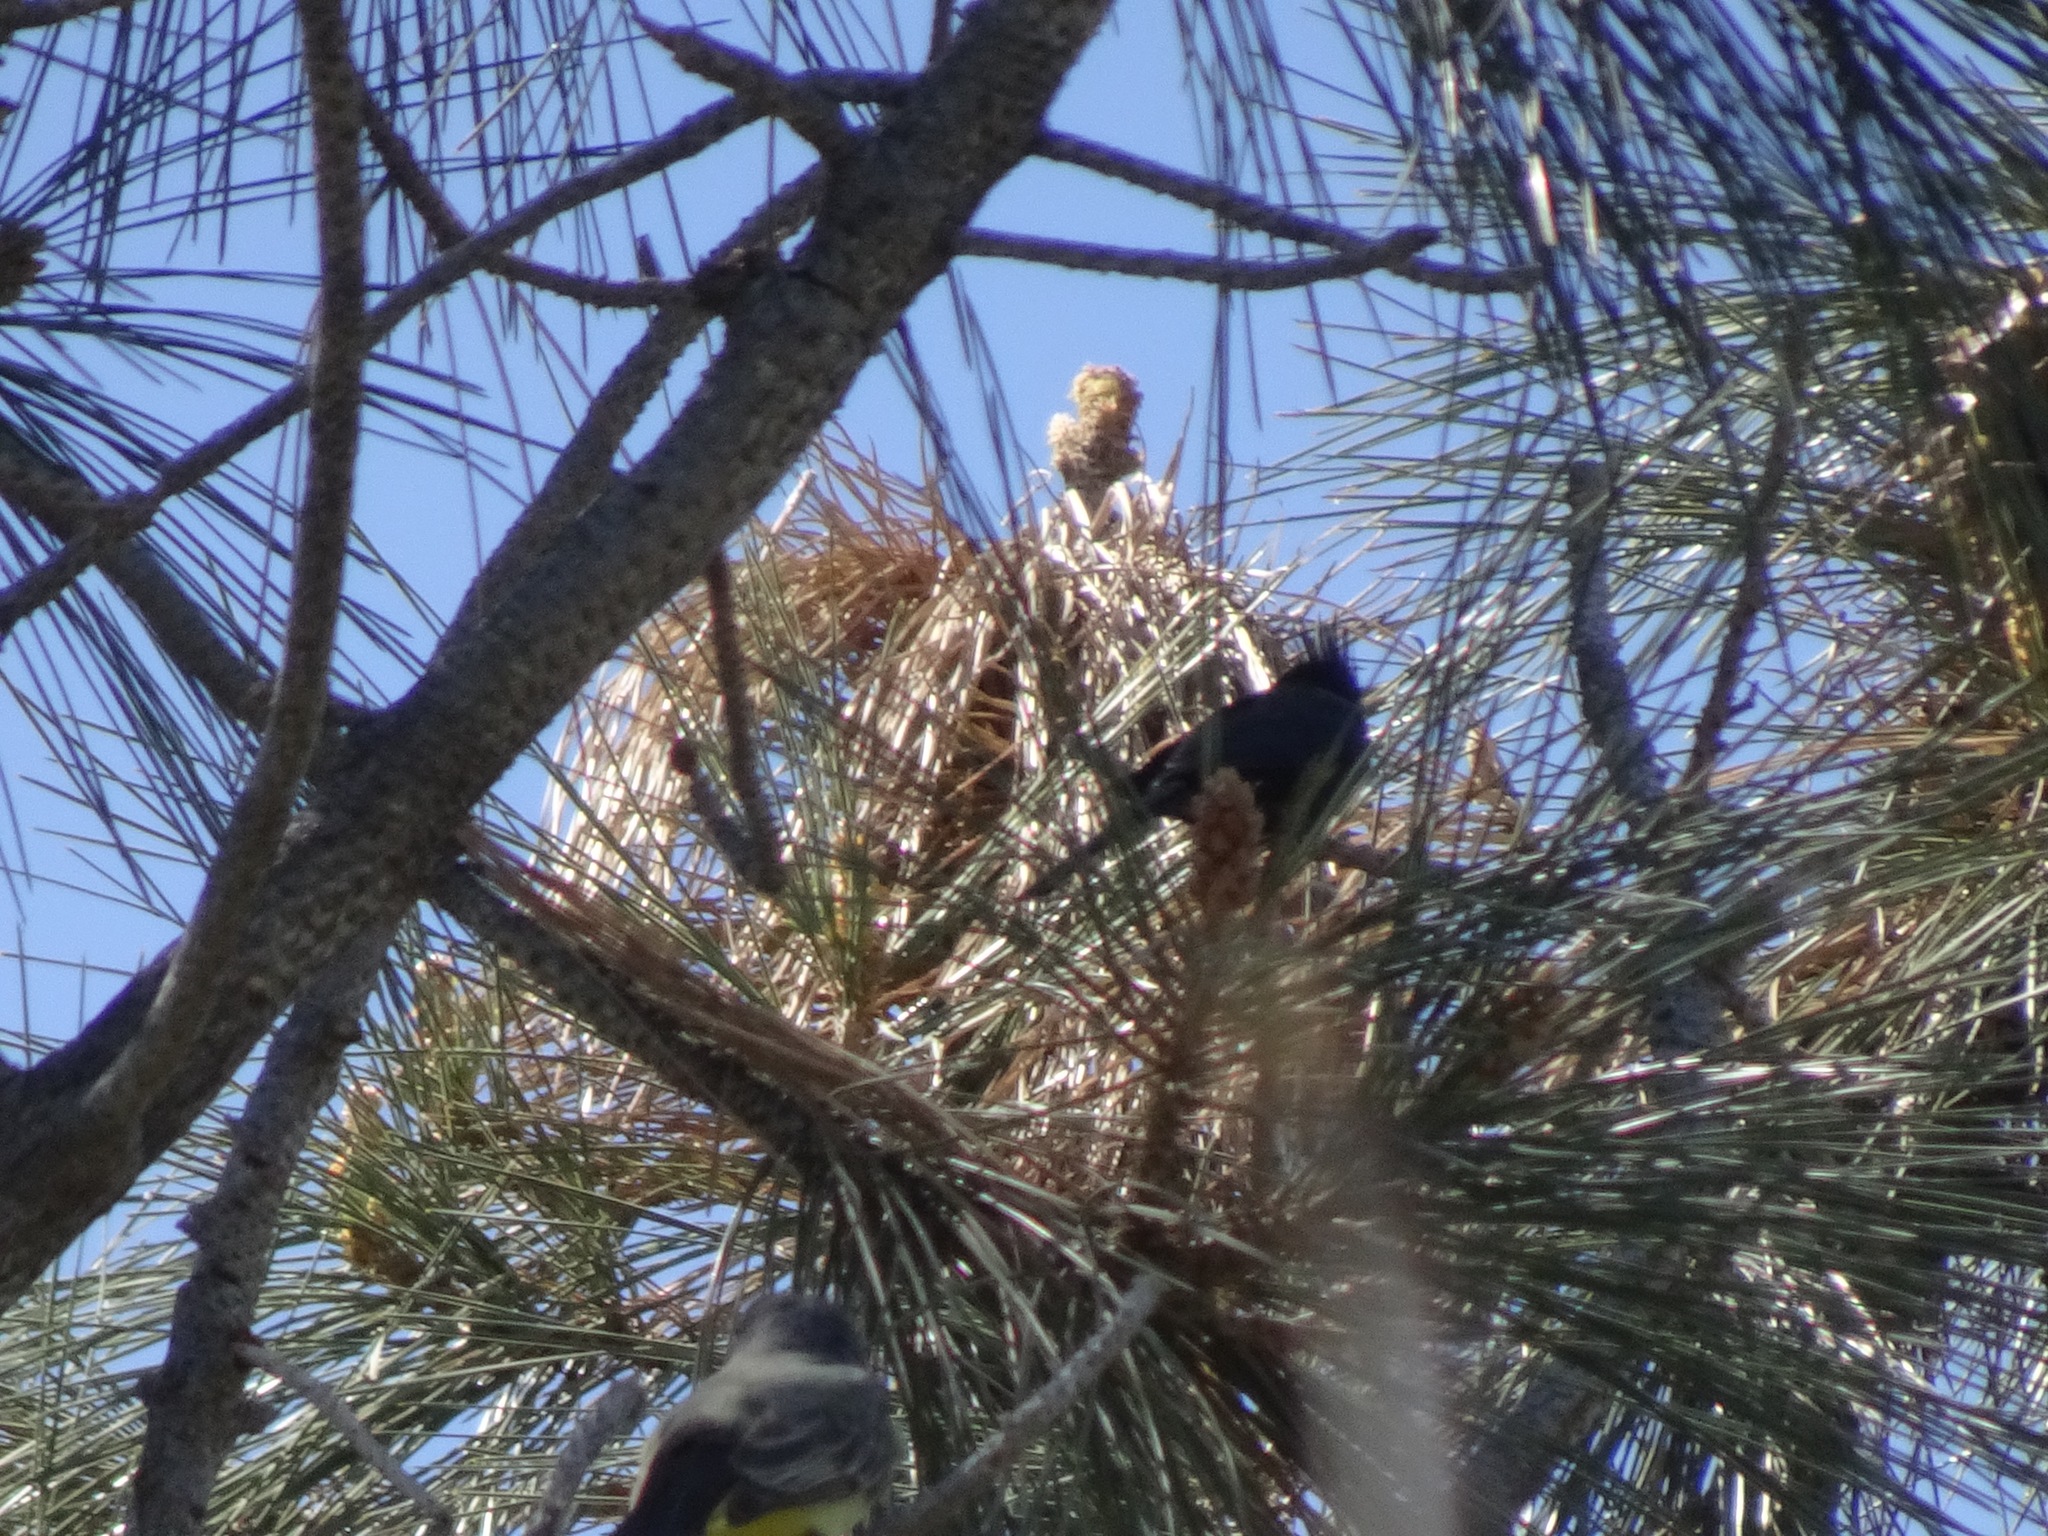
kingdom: Animalia
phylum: Chordata
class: Aves
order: Passeriformes
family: Ptilogonatidae
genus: Phainopepla
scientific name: Phainopepla nitens
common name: Phainopepla
